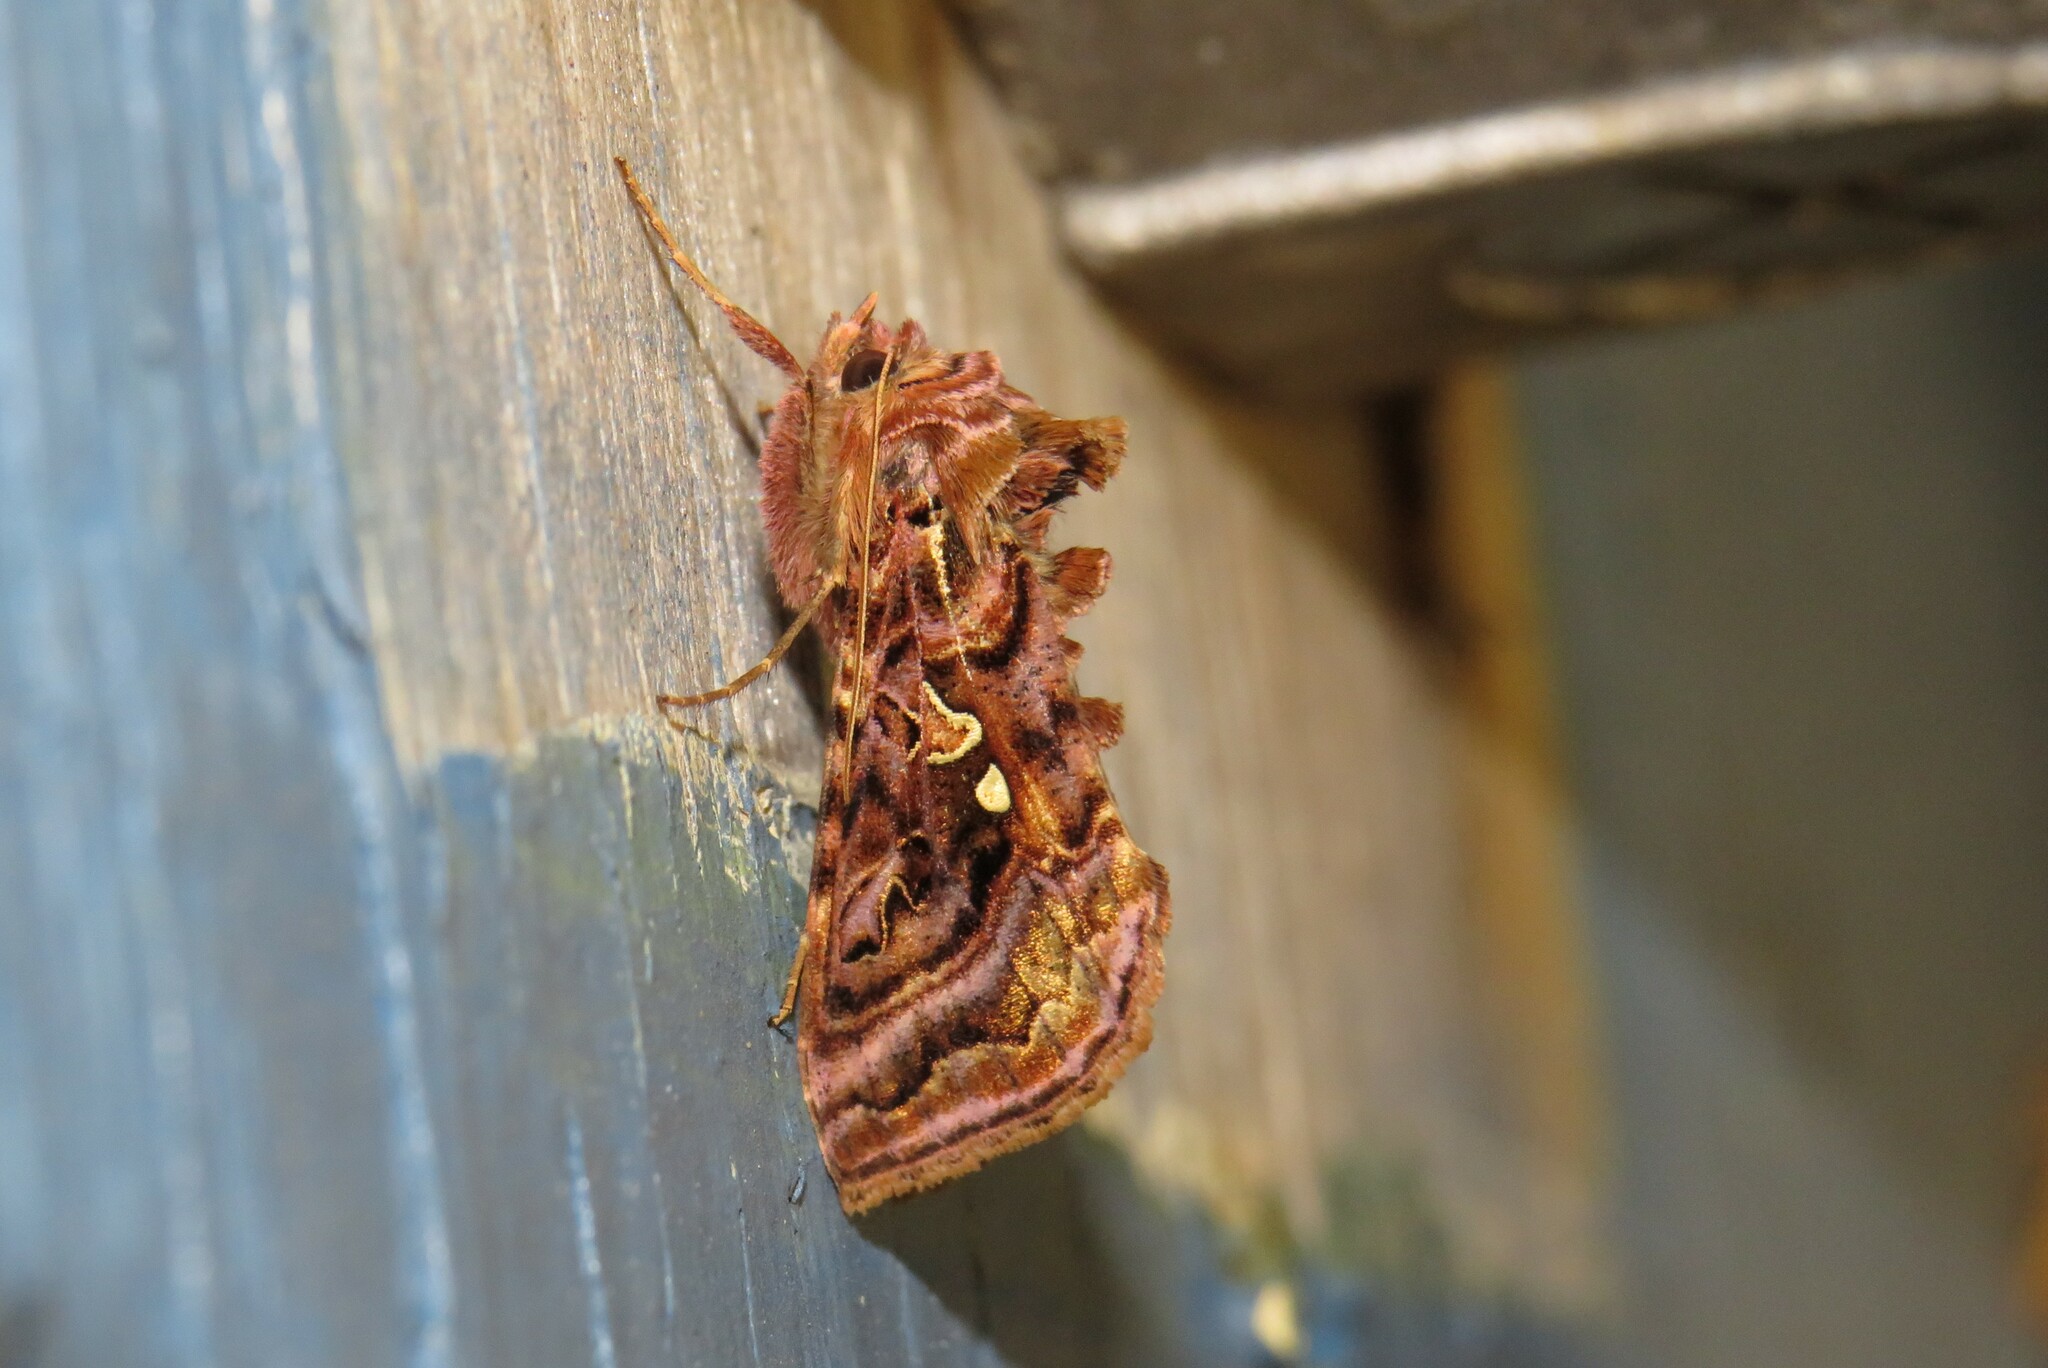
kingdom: Animalia
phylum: Arthropoda
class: Insecta
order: Lepidoptera
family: Noctuidae
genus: Autographa
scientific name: Autographa mappa
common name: Wavy chestnut y moth
